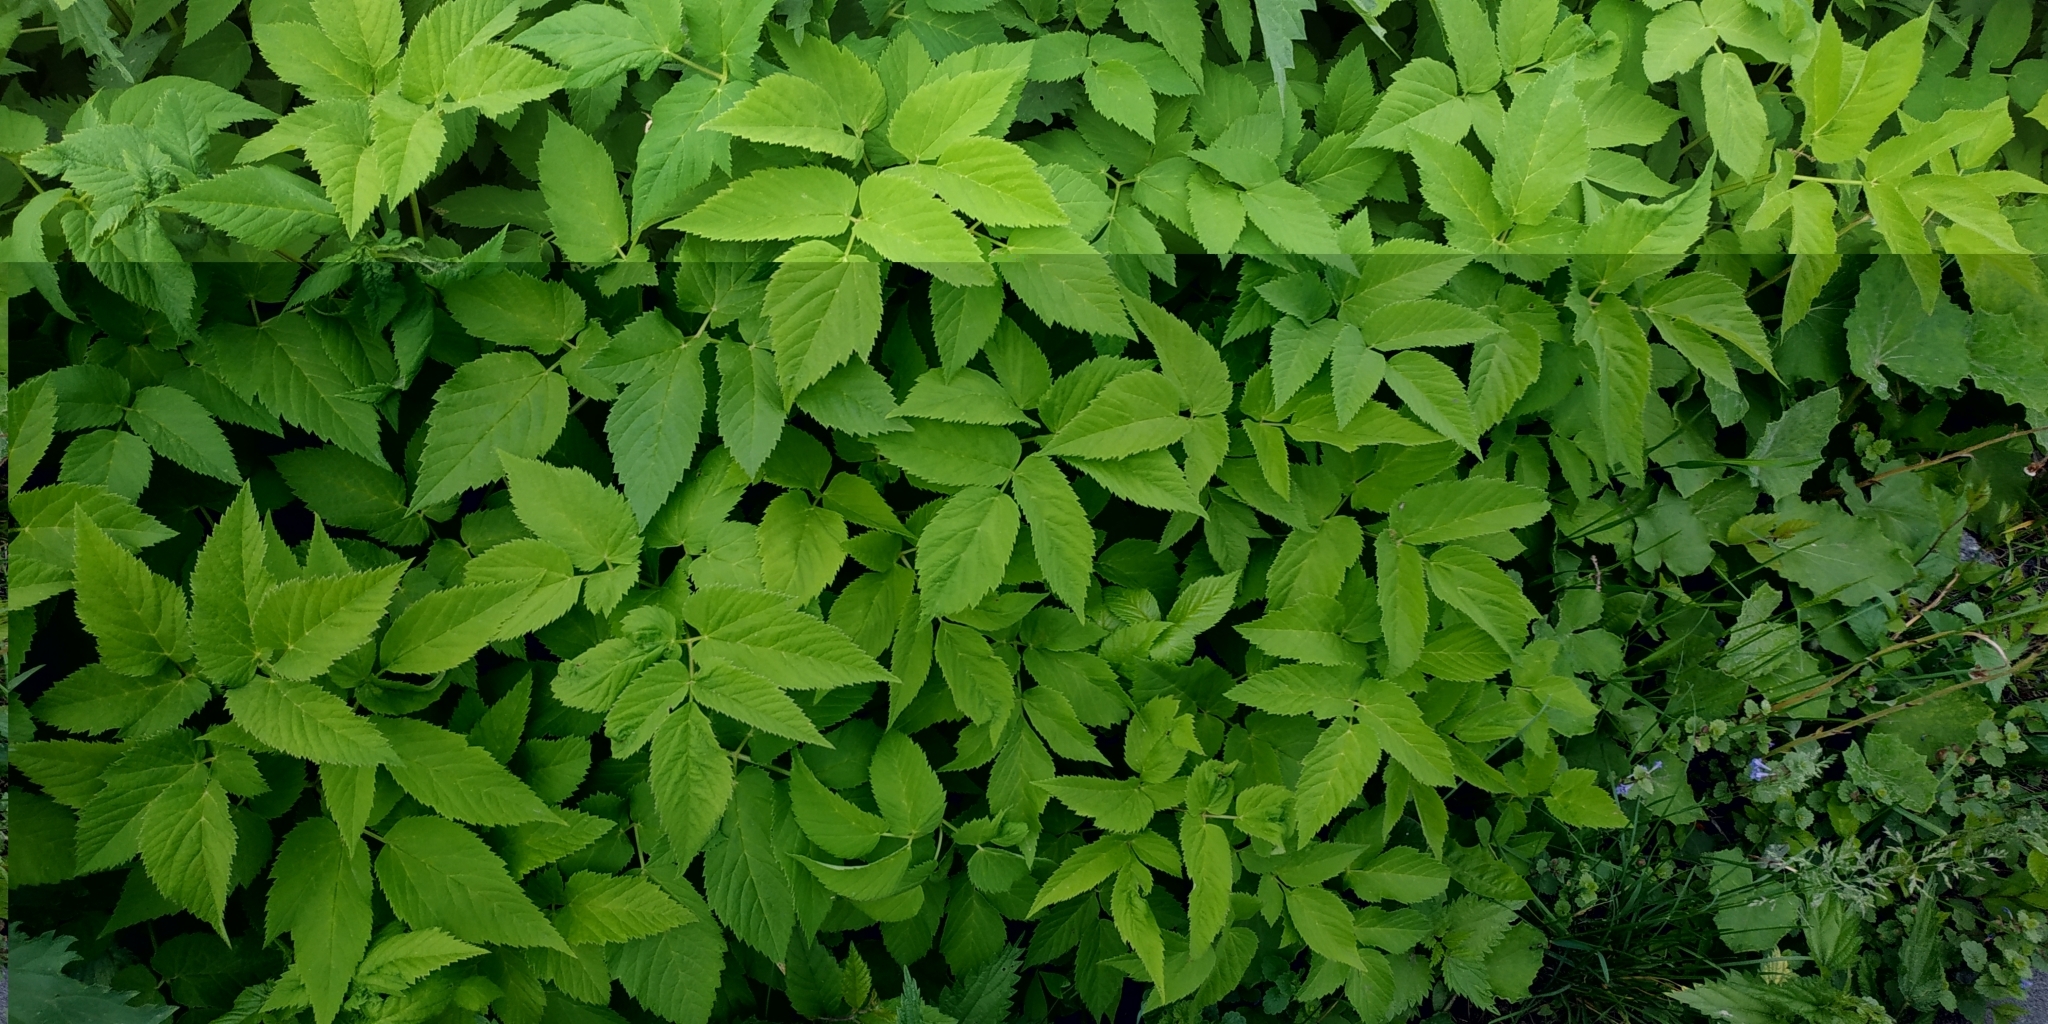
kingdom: Plantae
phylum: Tracheophyta
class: Magnoliopsida
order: Apiales
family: Apiaceae
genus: Aegopodium
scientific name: Aegopodium podagraria
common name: Ground-elder
